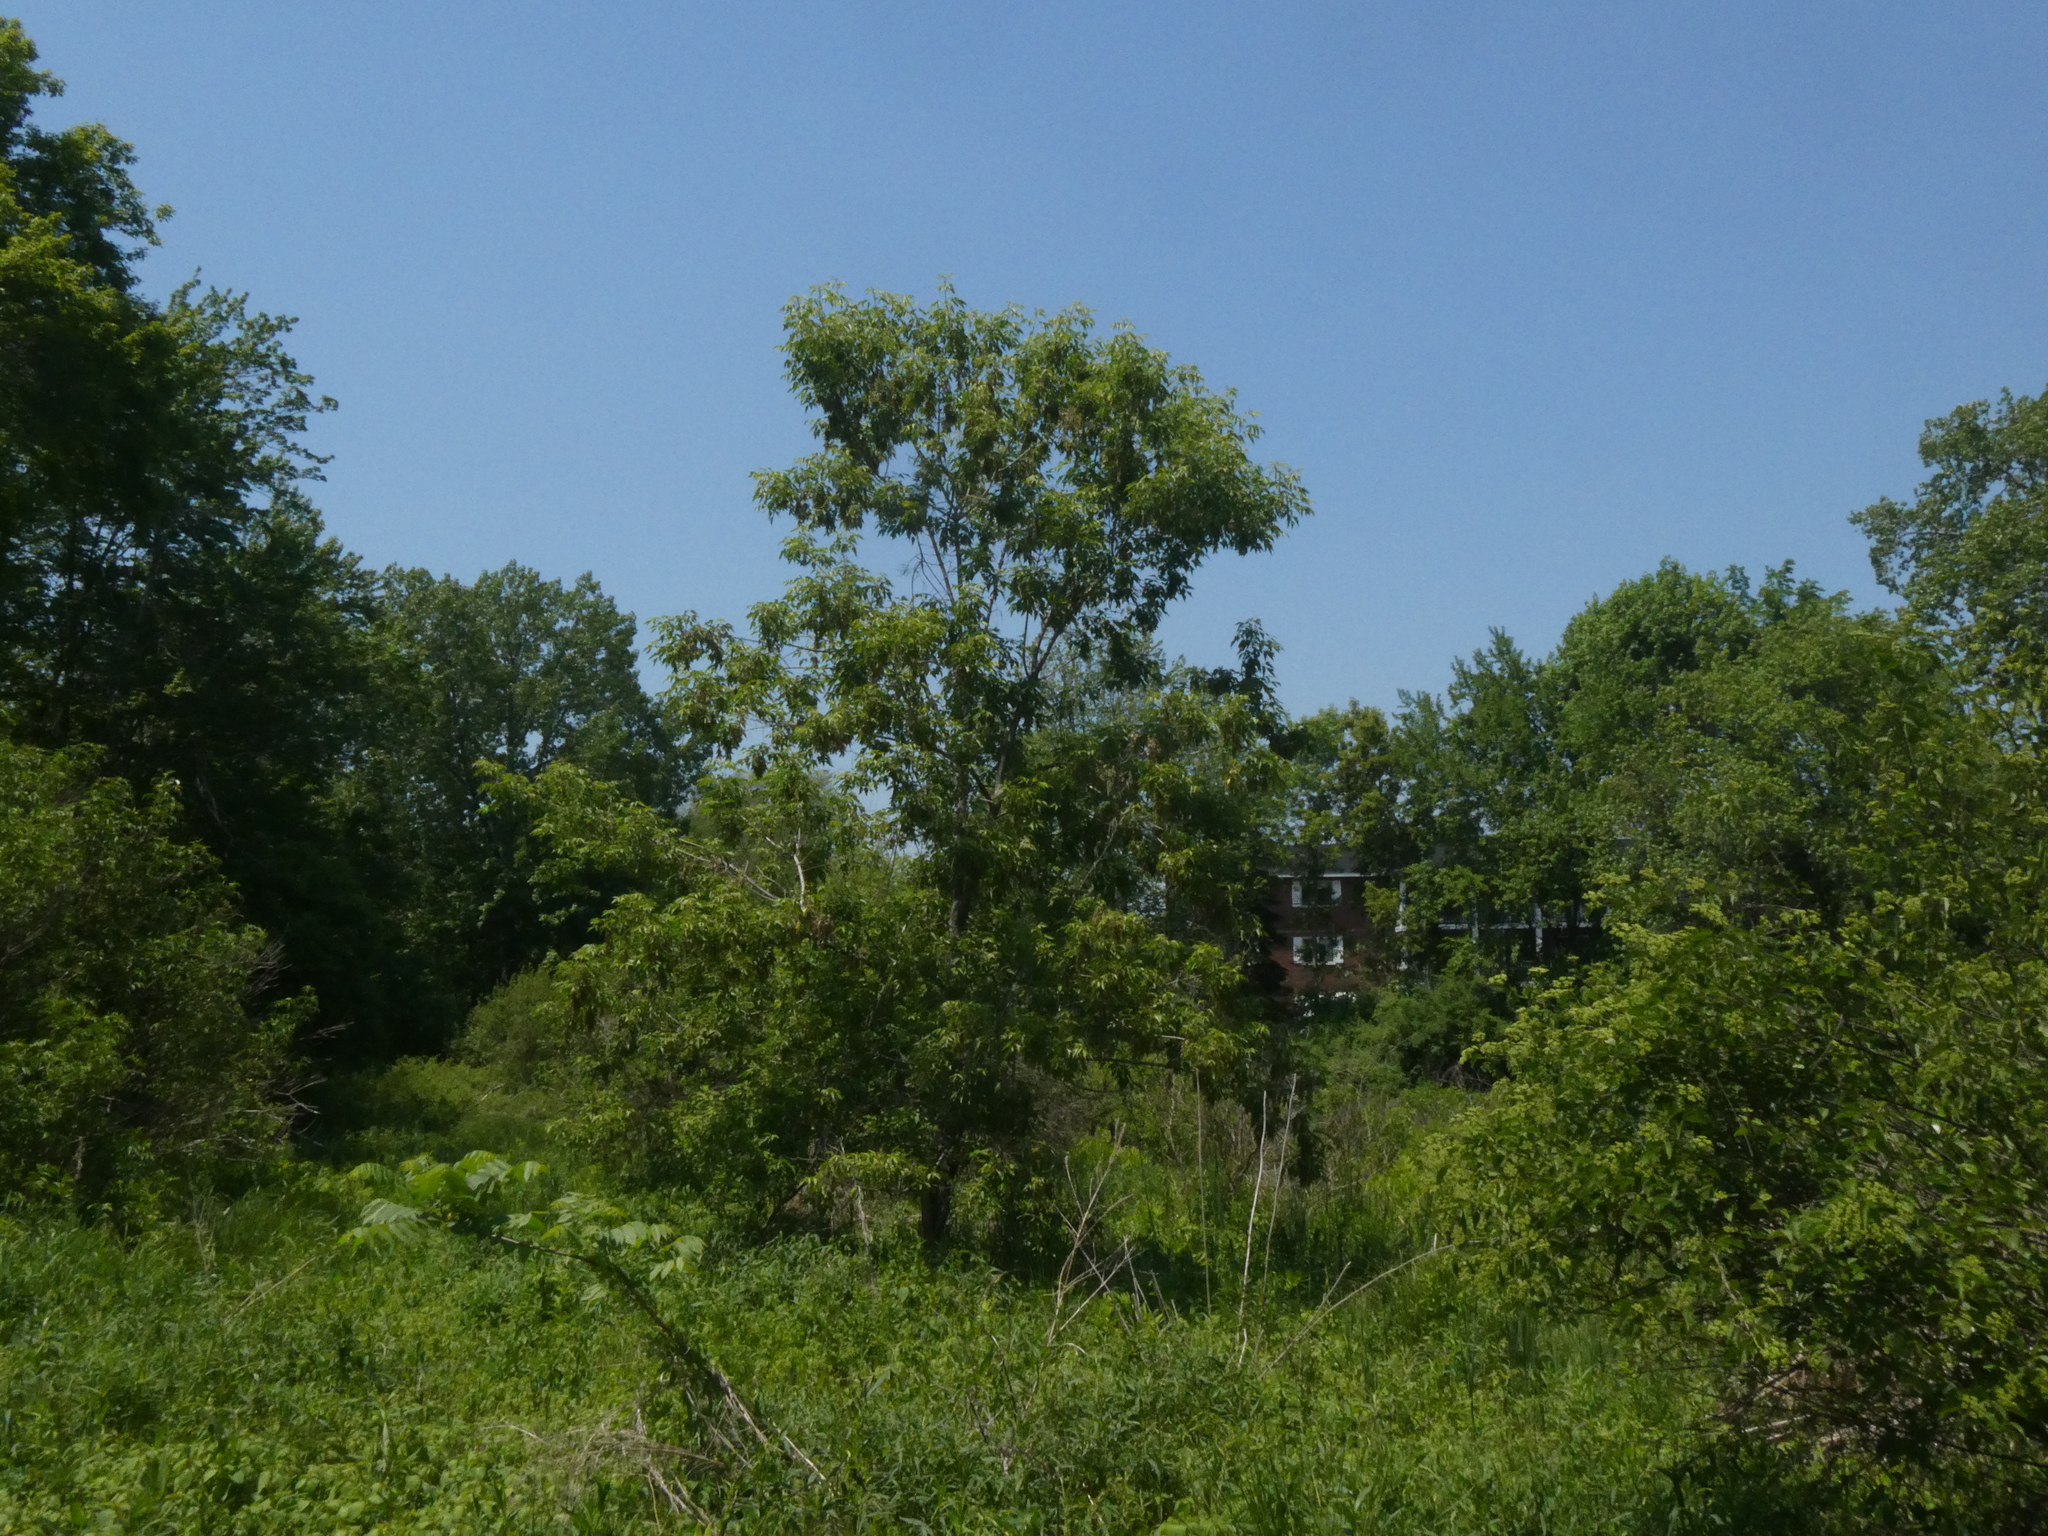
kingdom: Plantae
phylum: Tracheophyta
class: Magnoliopsida
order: Sapindales
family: Sapindaceae
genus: Acer
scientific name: Acer negundo
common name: Ashleaf maple
